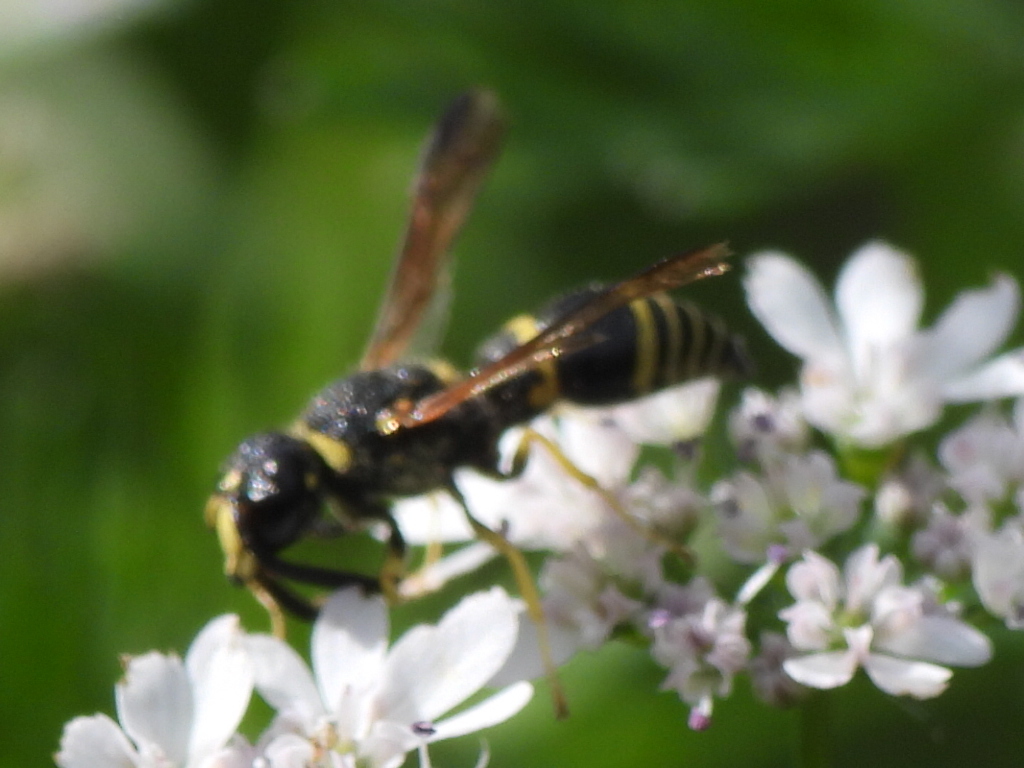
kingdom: Animalia
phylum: Arthropoda
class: Insecta
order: Hymenoptera
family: Eumenidae
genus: Euodynerus
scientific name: Euodynerus foraminatus
